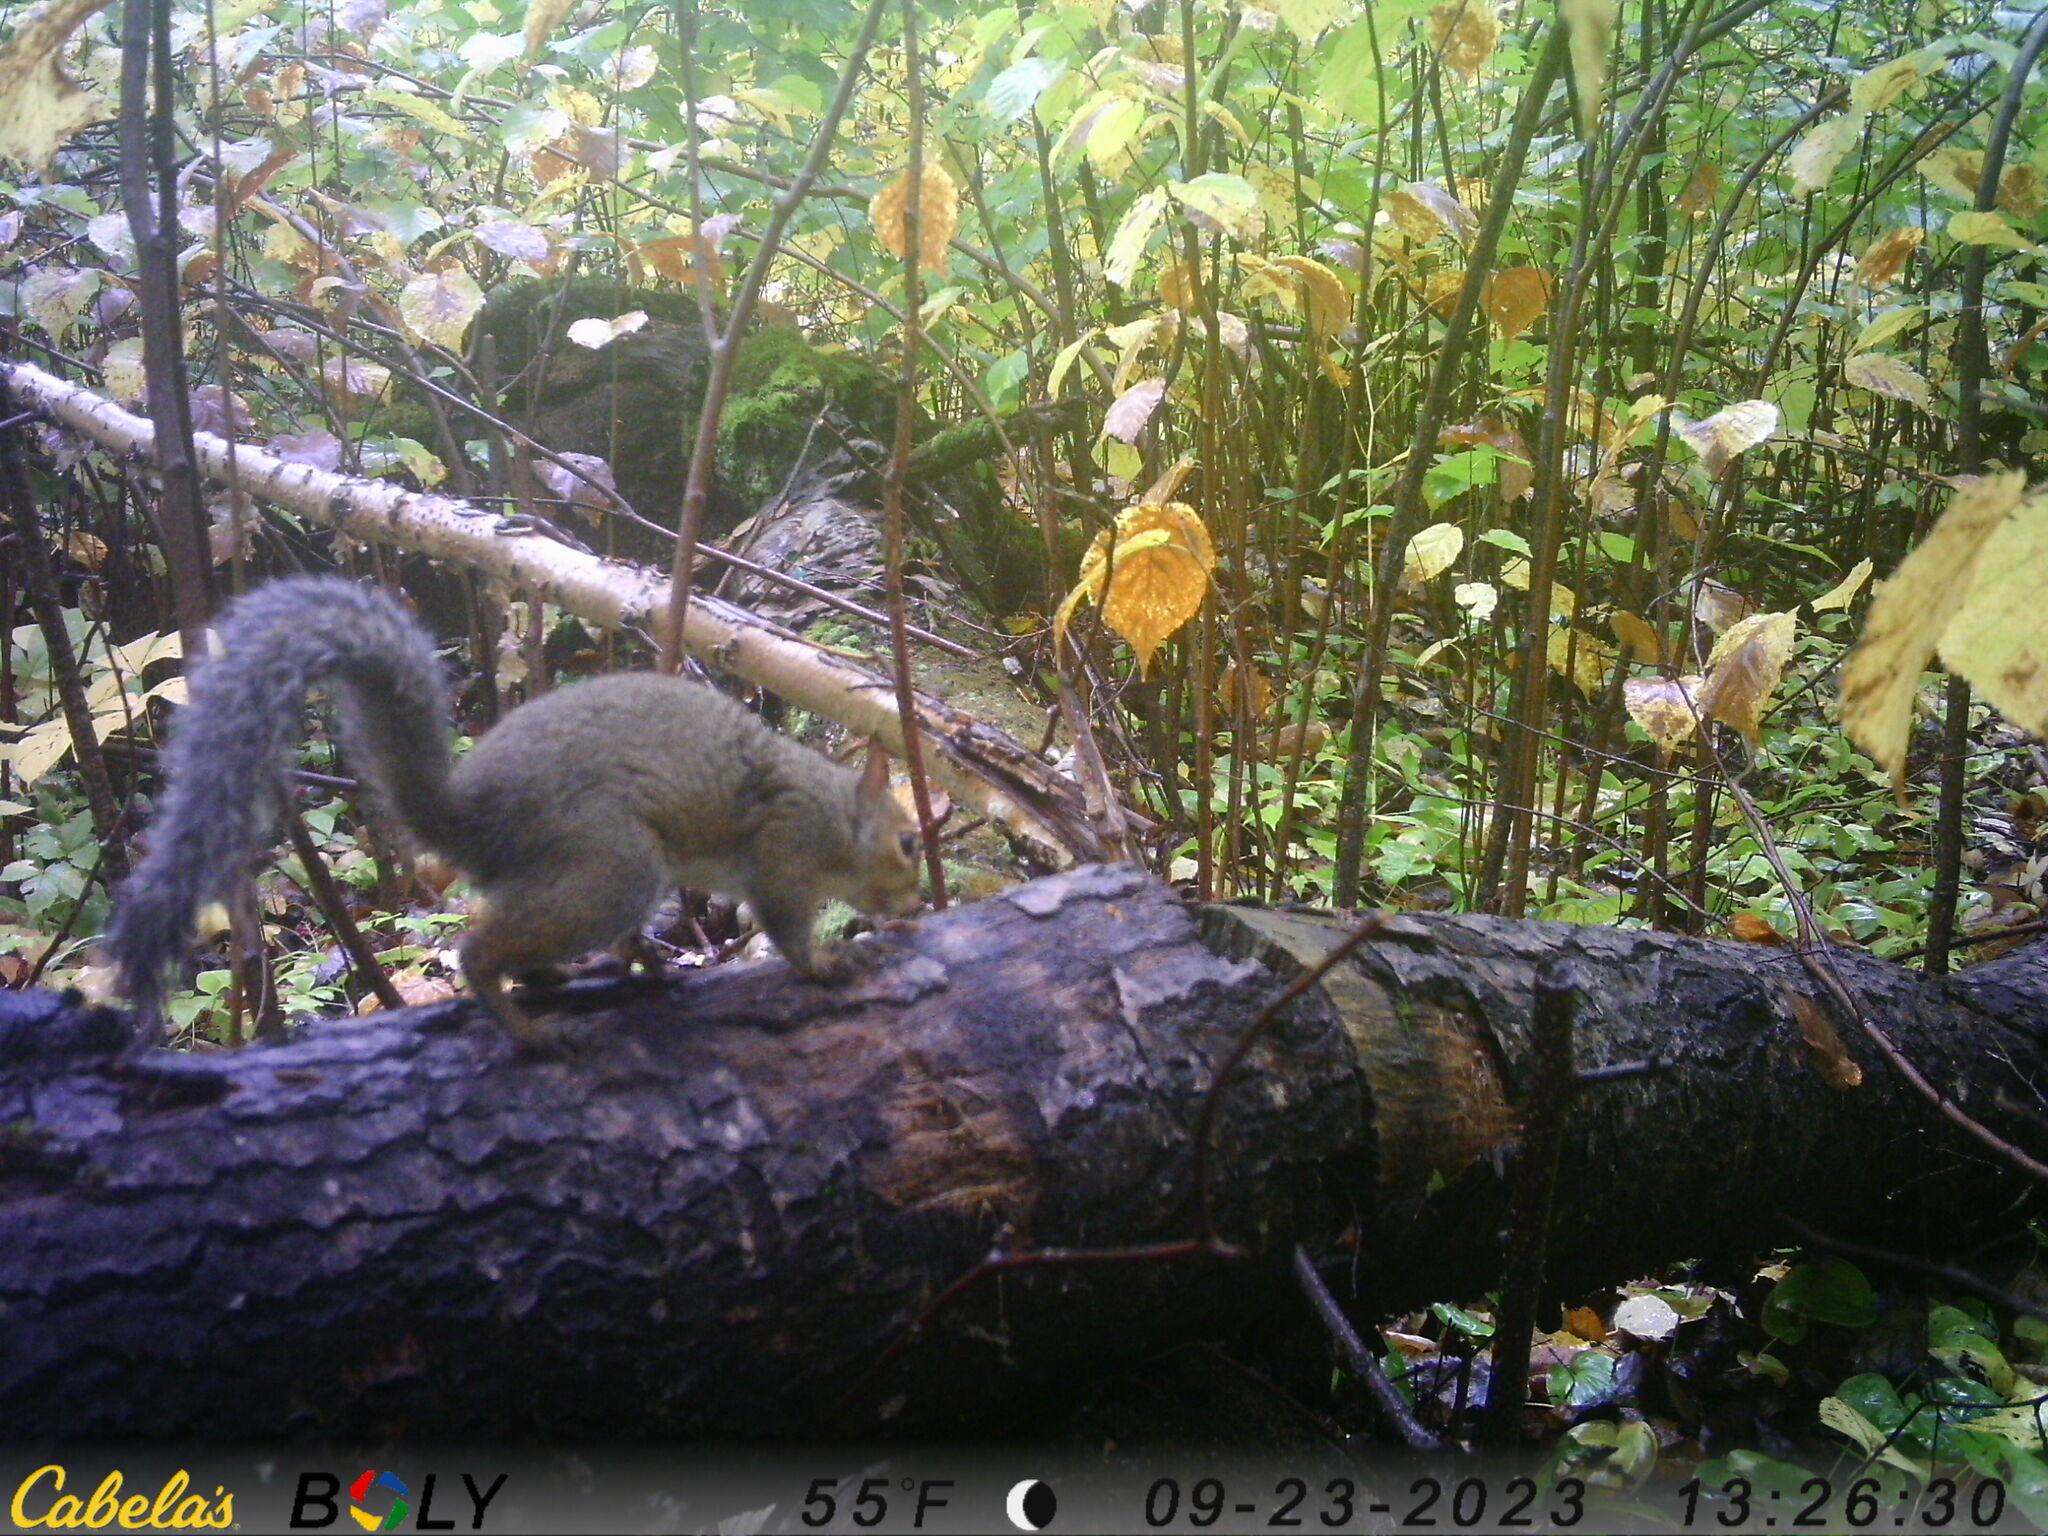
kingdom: Animalia
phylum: Chordata
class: Mammalia
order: Rodentia
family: Sciuridae
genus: Sciurus
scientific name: Sciurus carolinensis
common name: Eastern gray squirrel
